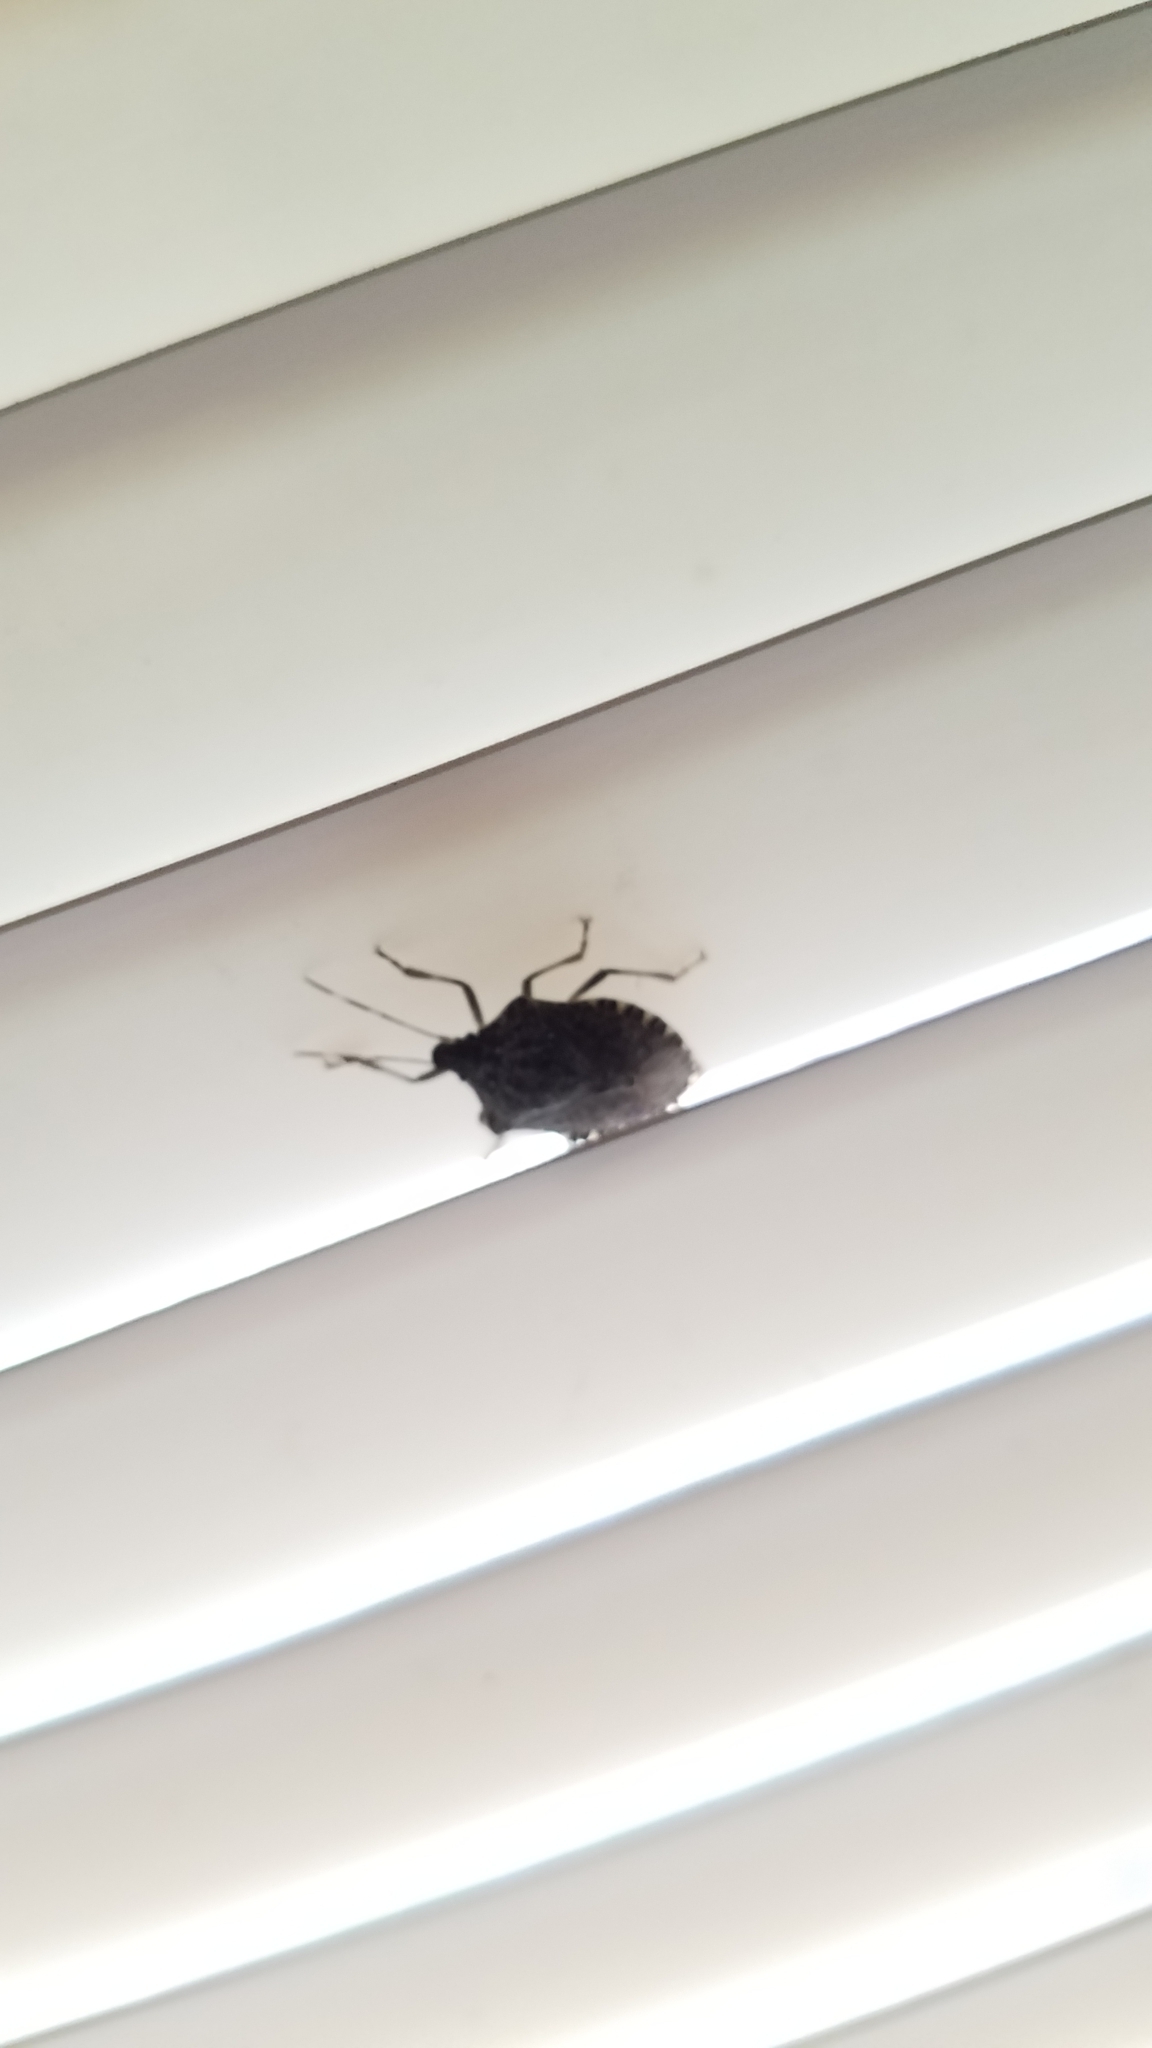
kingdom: Animalia
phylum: Arthropoda
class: Insecta
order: Hemiptera
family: Pentatomidae
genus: Halyomorpha
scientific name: Halyomorpha halys
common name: Brown marmorated stink bug
